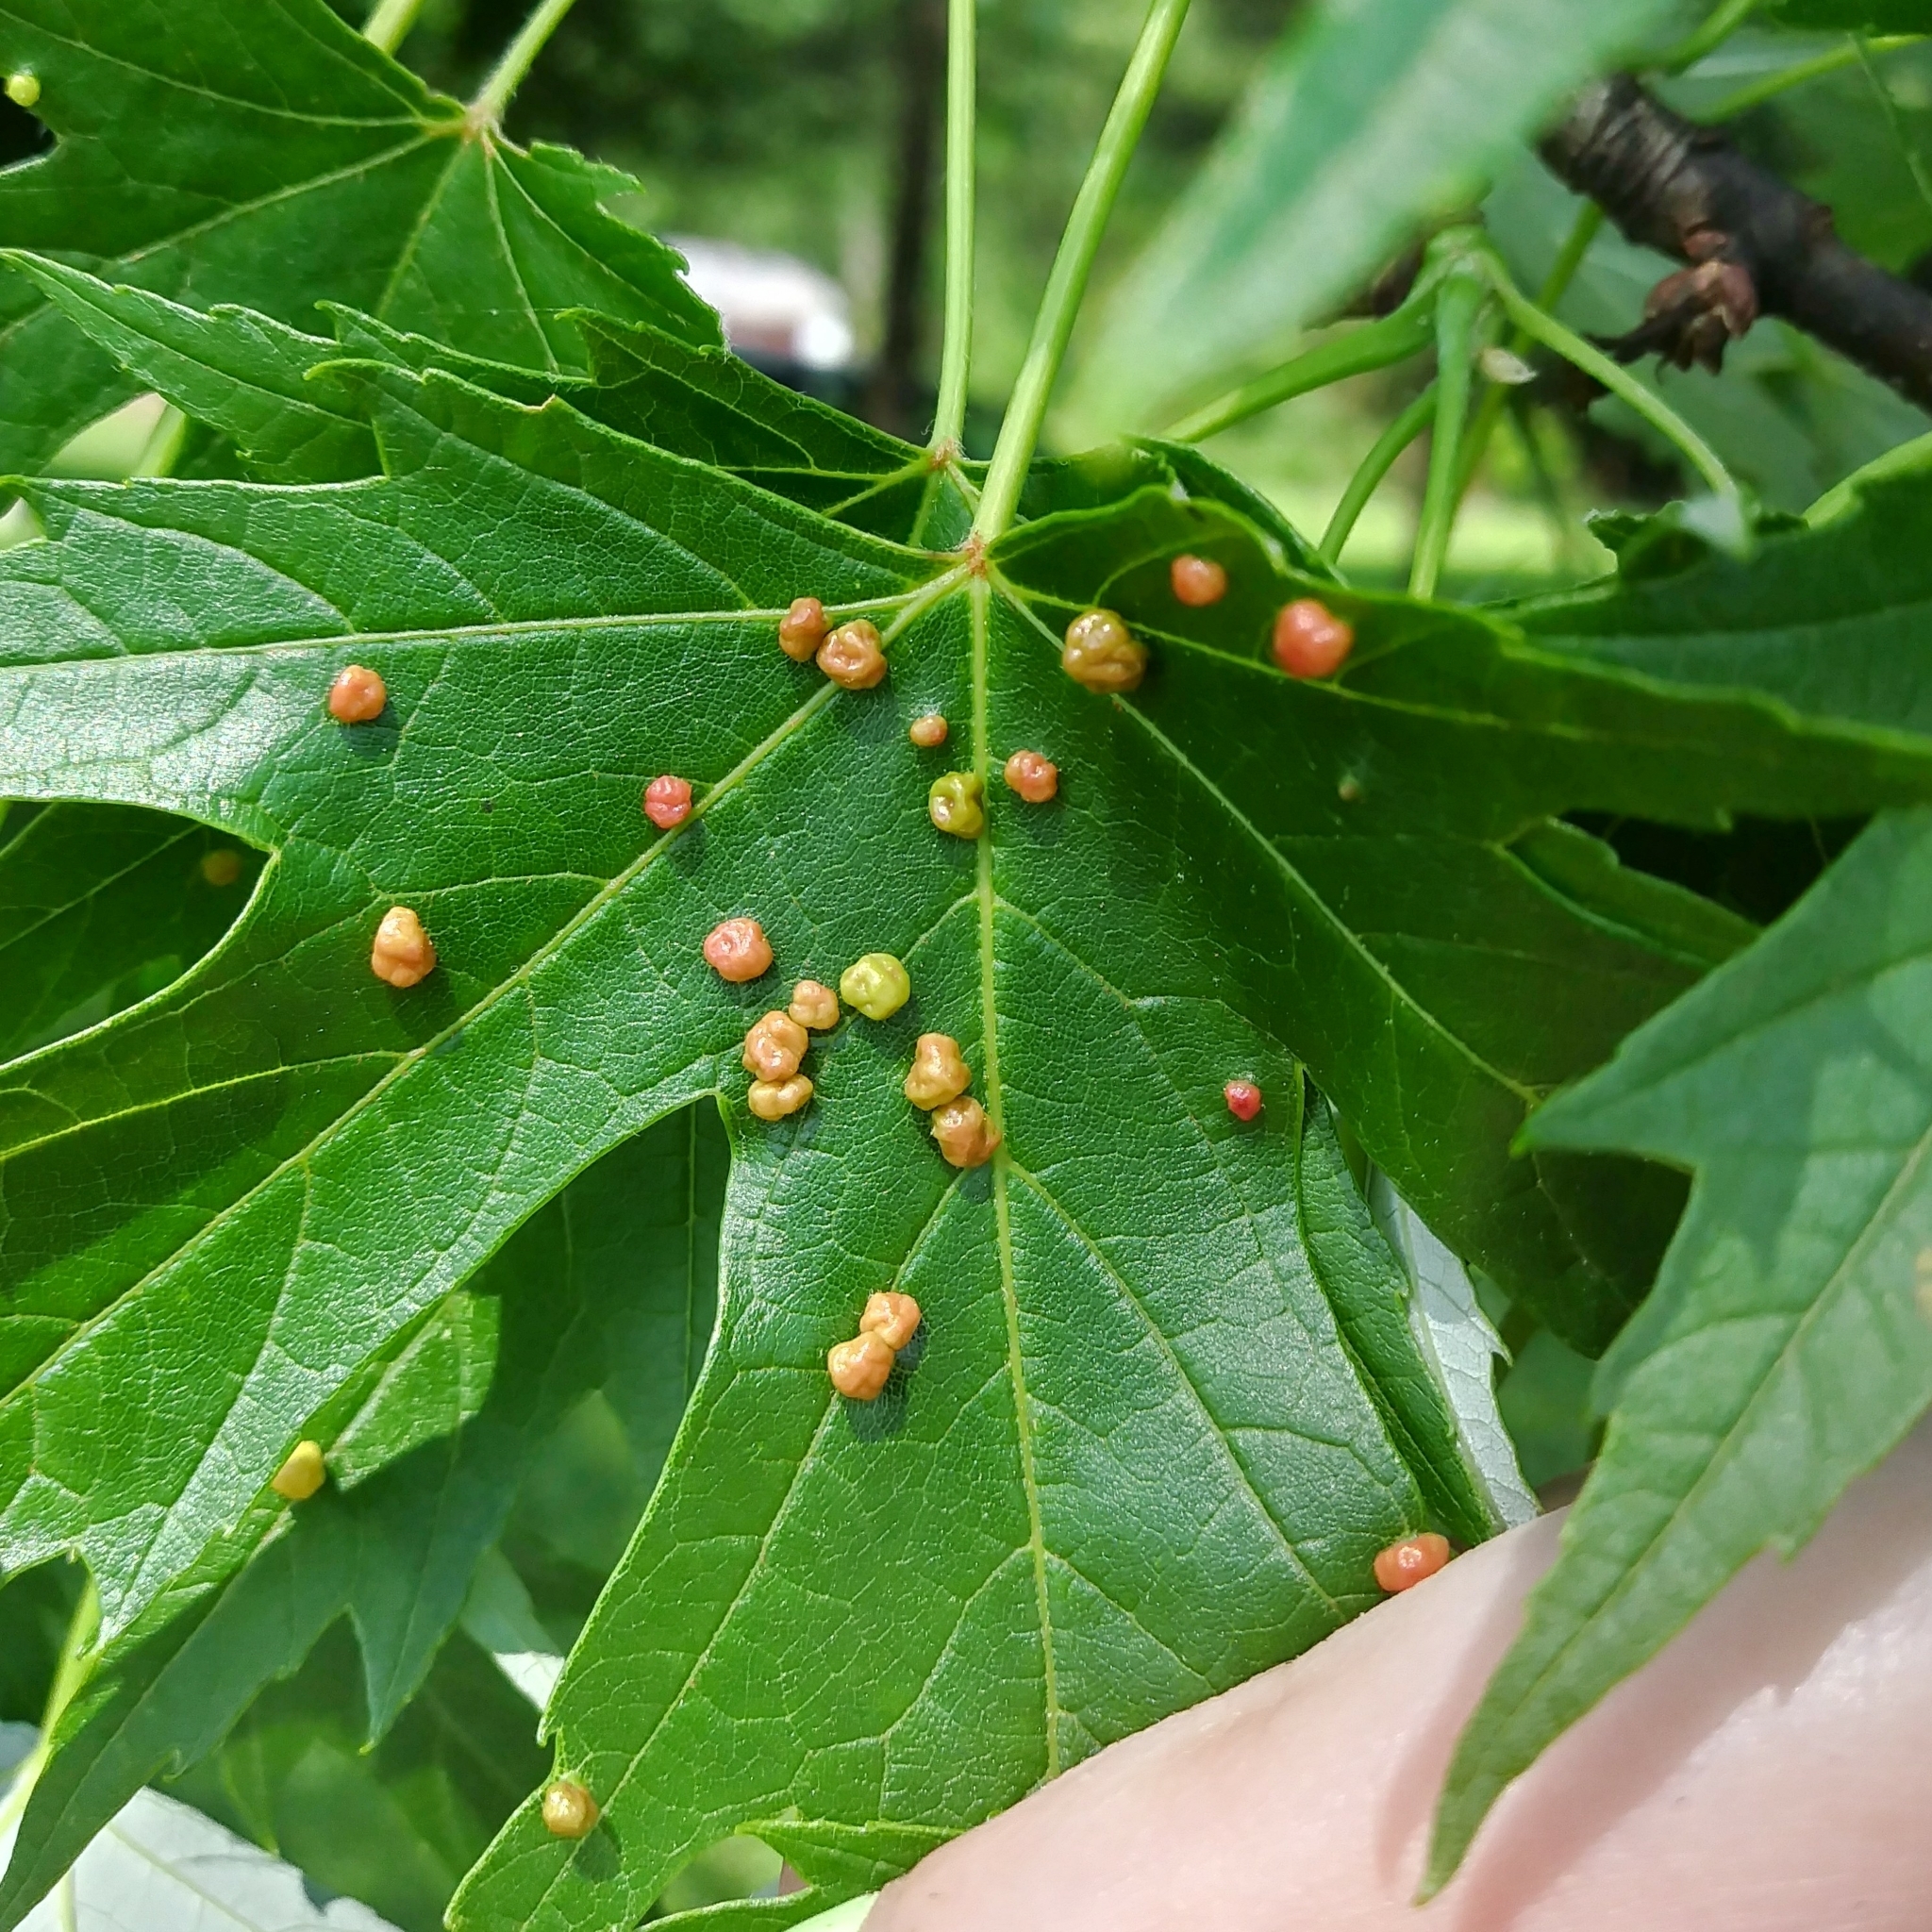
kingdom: Animalia
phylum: Arthropoda
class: Arachnida
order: Trombidiformes
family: Eriophyidae
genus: Vasates
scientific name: Vasates quadripedes
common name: Maple bladder gall mite
